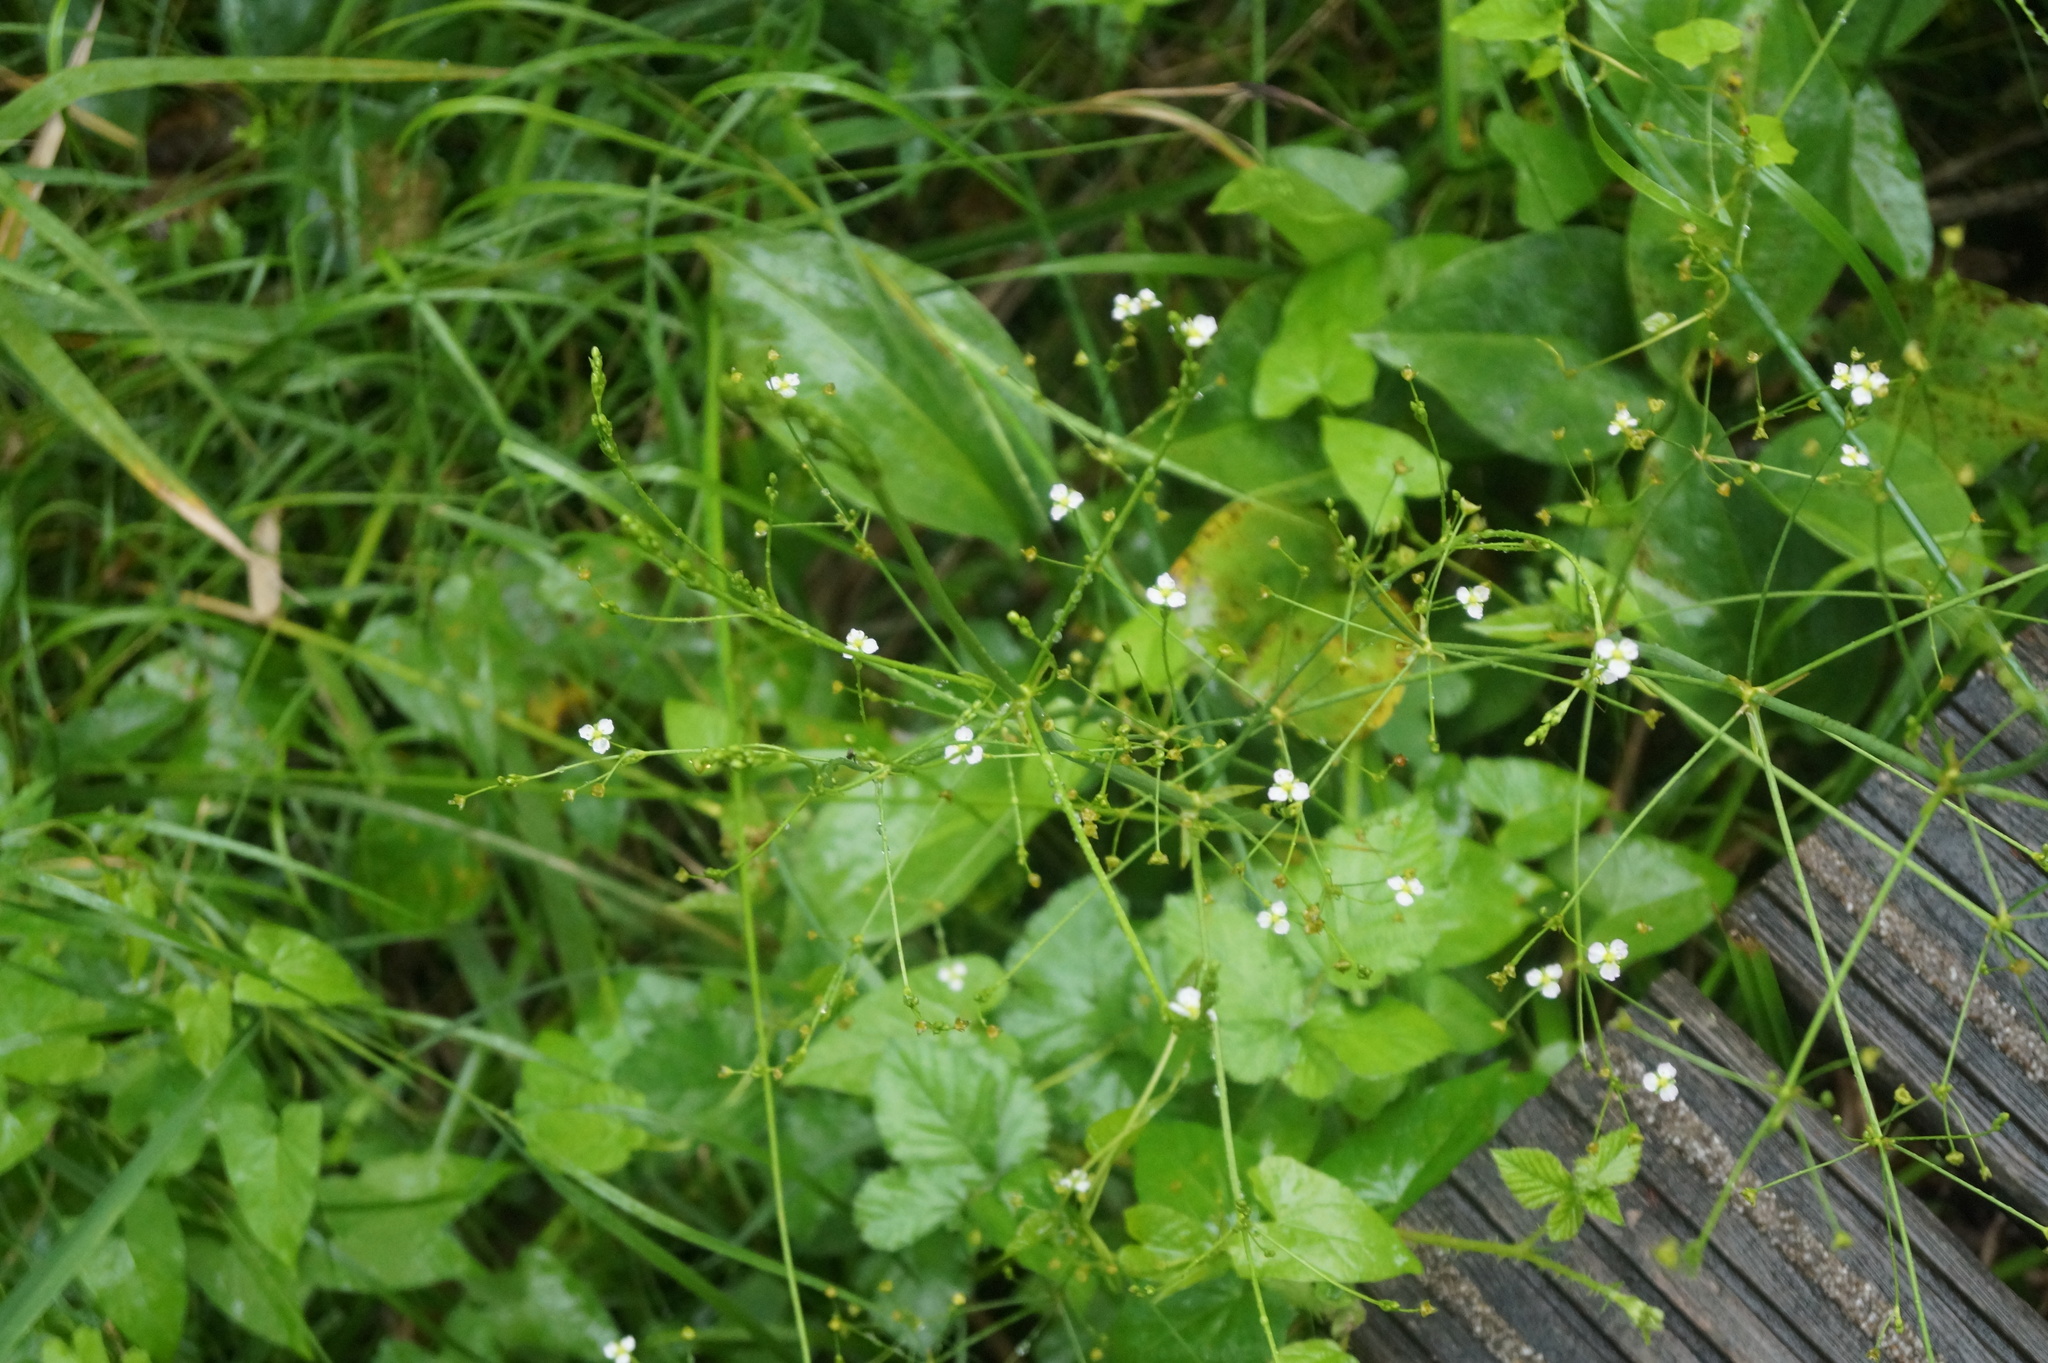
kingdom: Plantae
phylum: Tracheophyta
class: Liliopsida
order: Alismatales
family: Alismataceae
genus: Alisma
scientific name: Alisma plantago-aquatica
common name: Water-plantain
